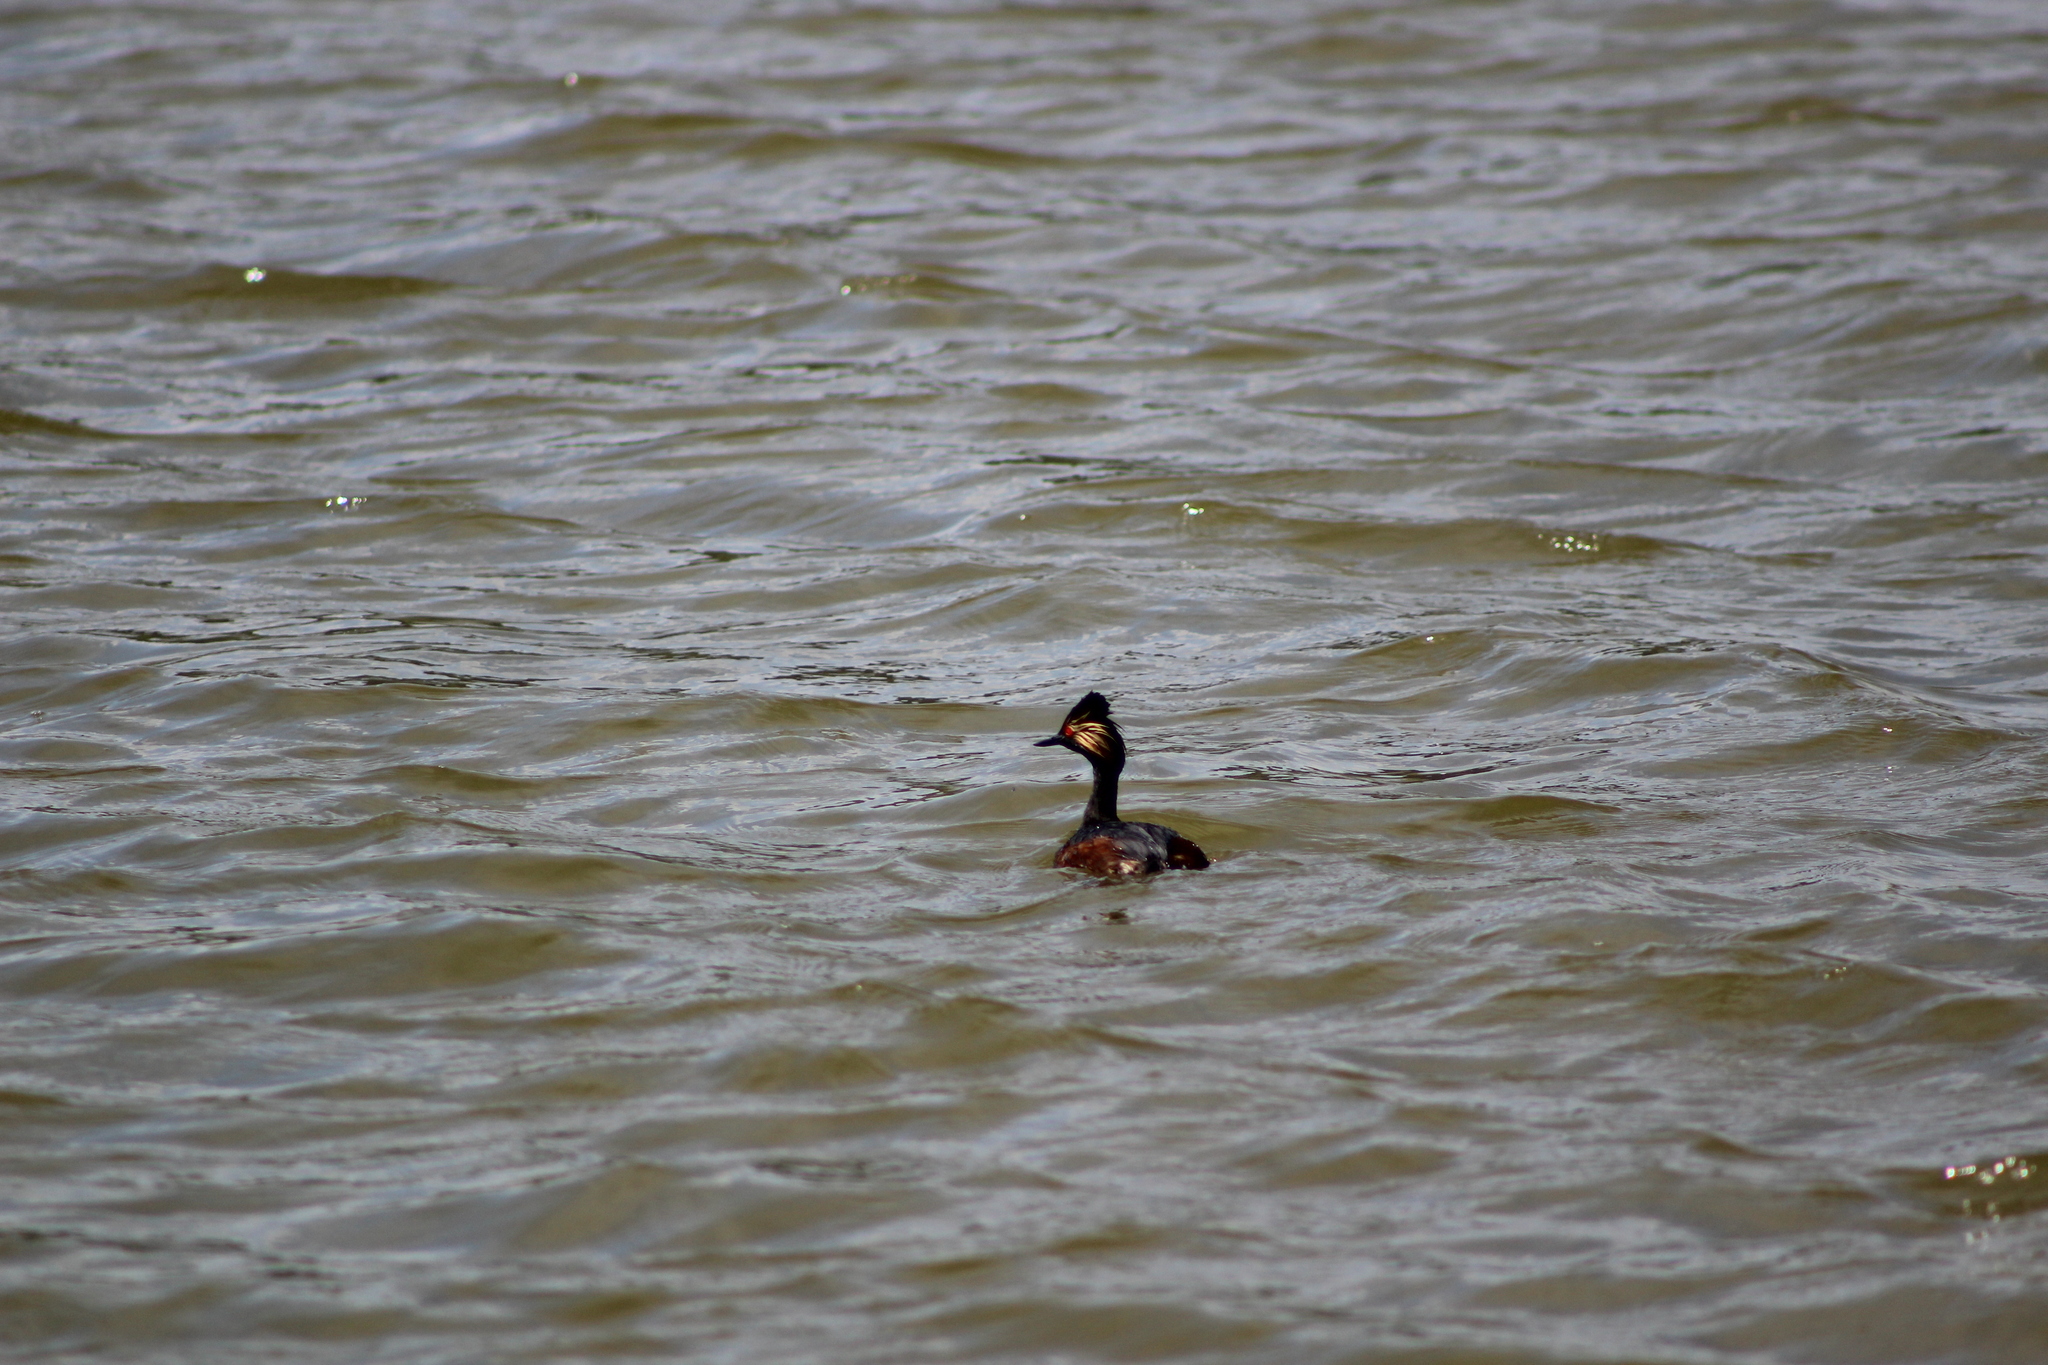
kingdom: Animalia
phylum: Chordata
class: Aves
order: Podicipediformes
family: Podicipedidae
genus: Podiceps
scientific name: Podiceps nigricollis
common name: Black-necked grebe
